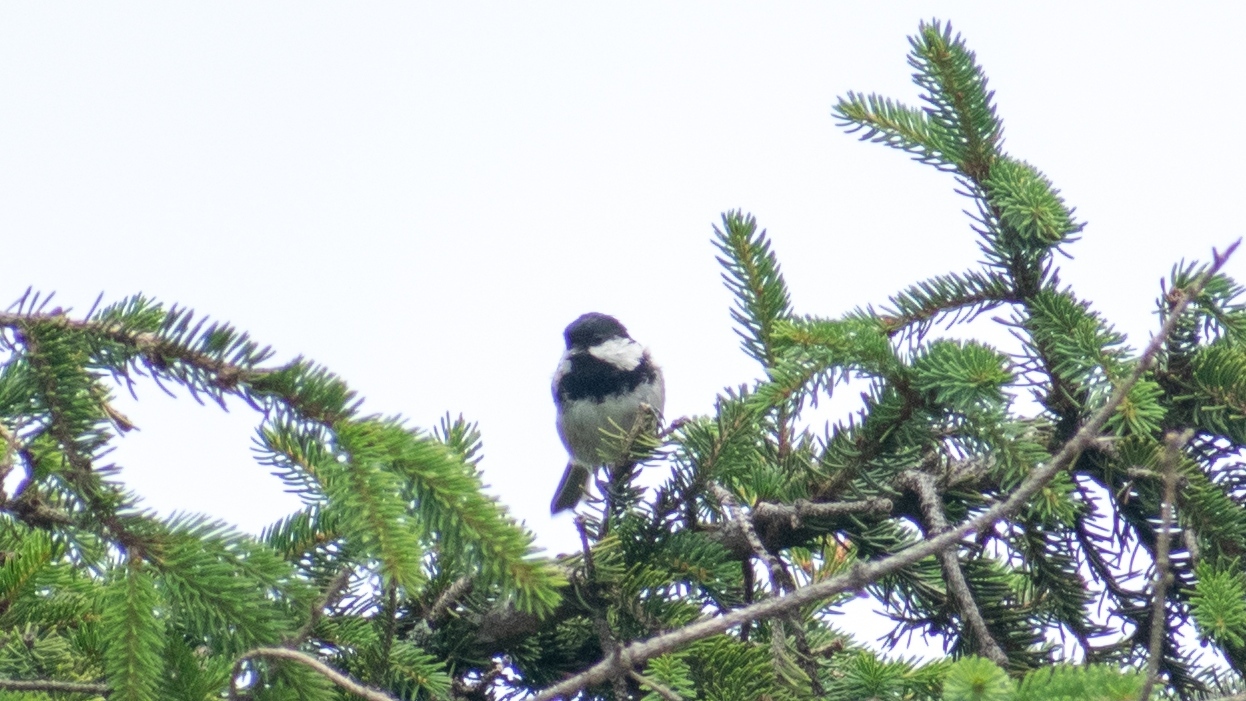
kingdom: Animalia
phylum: Chordata
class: Aves
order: Passeriformes
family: Paridae
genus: Periparus
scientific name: Periparus ater
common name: Coal tit
